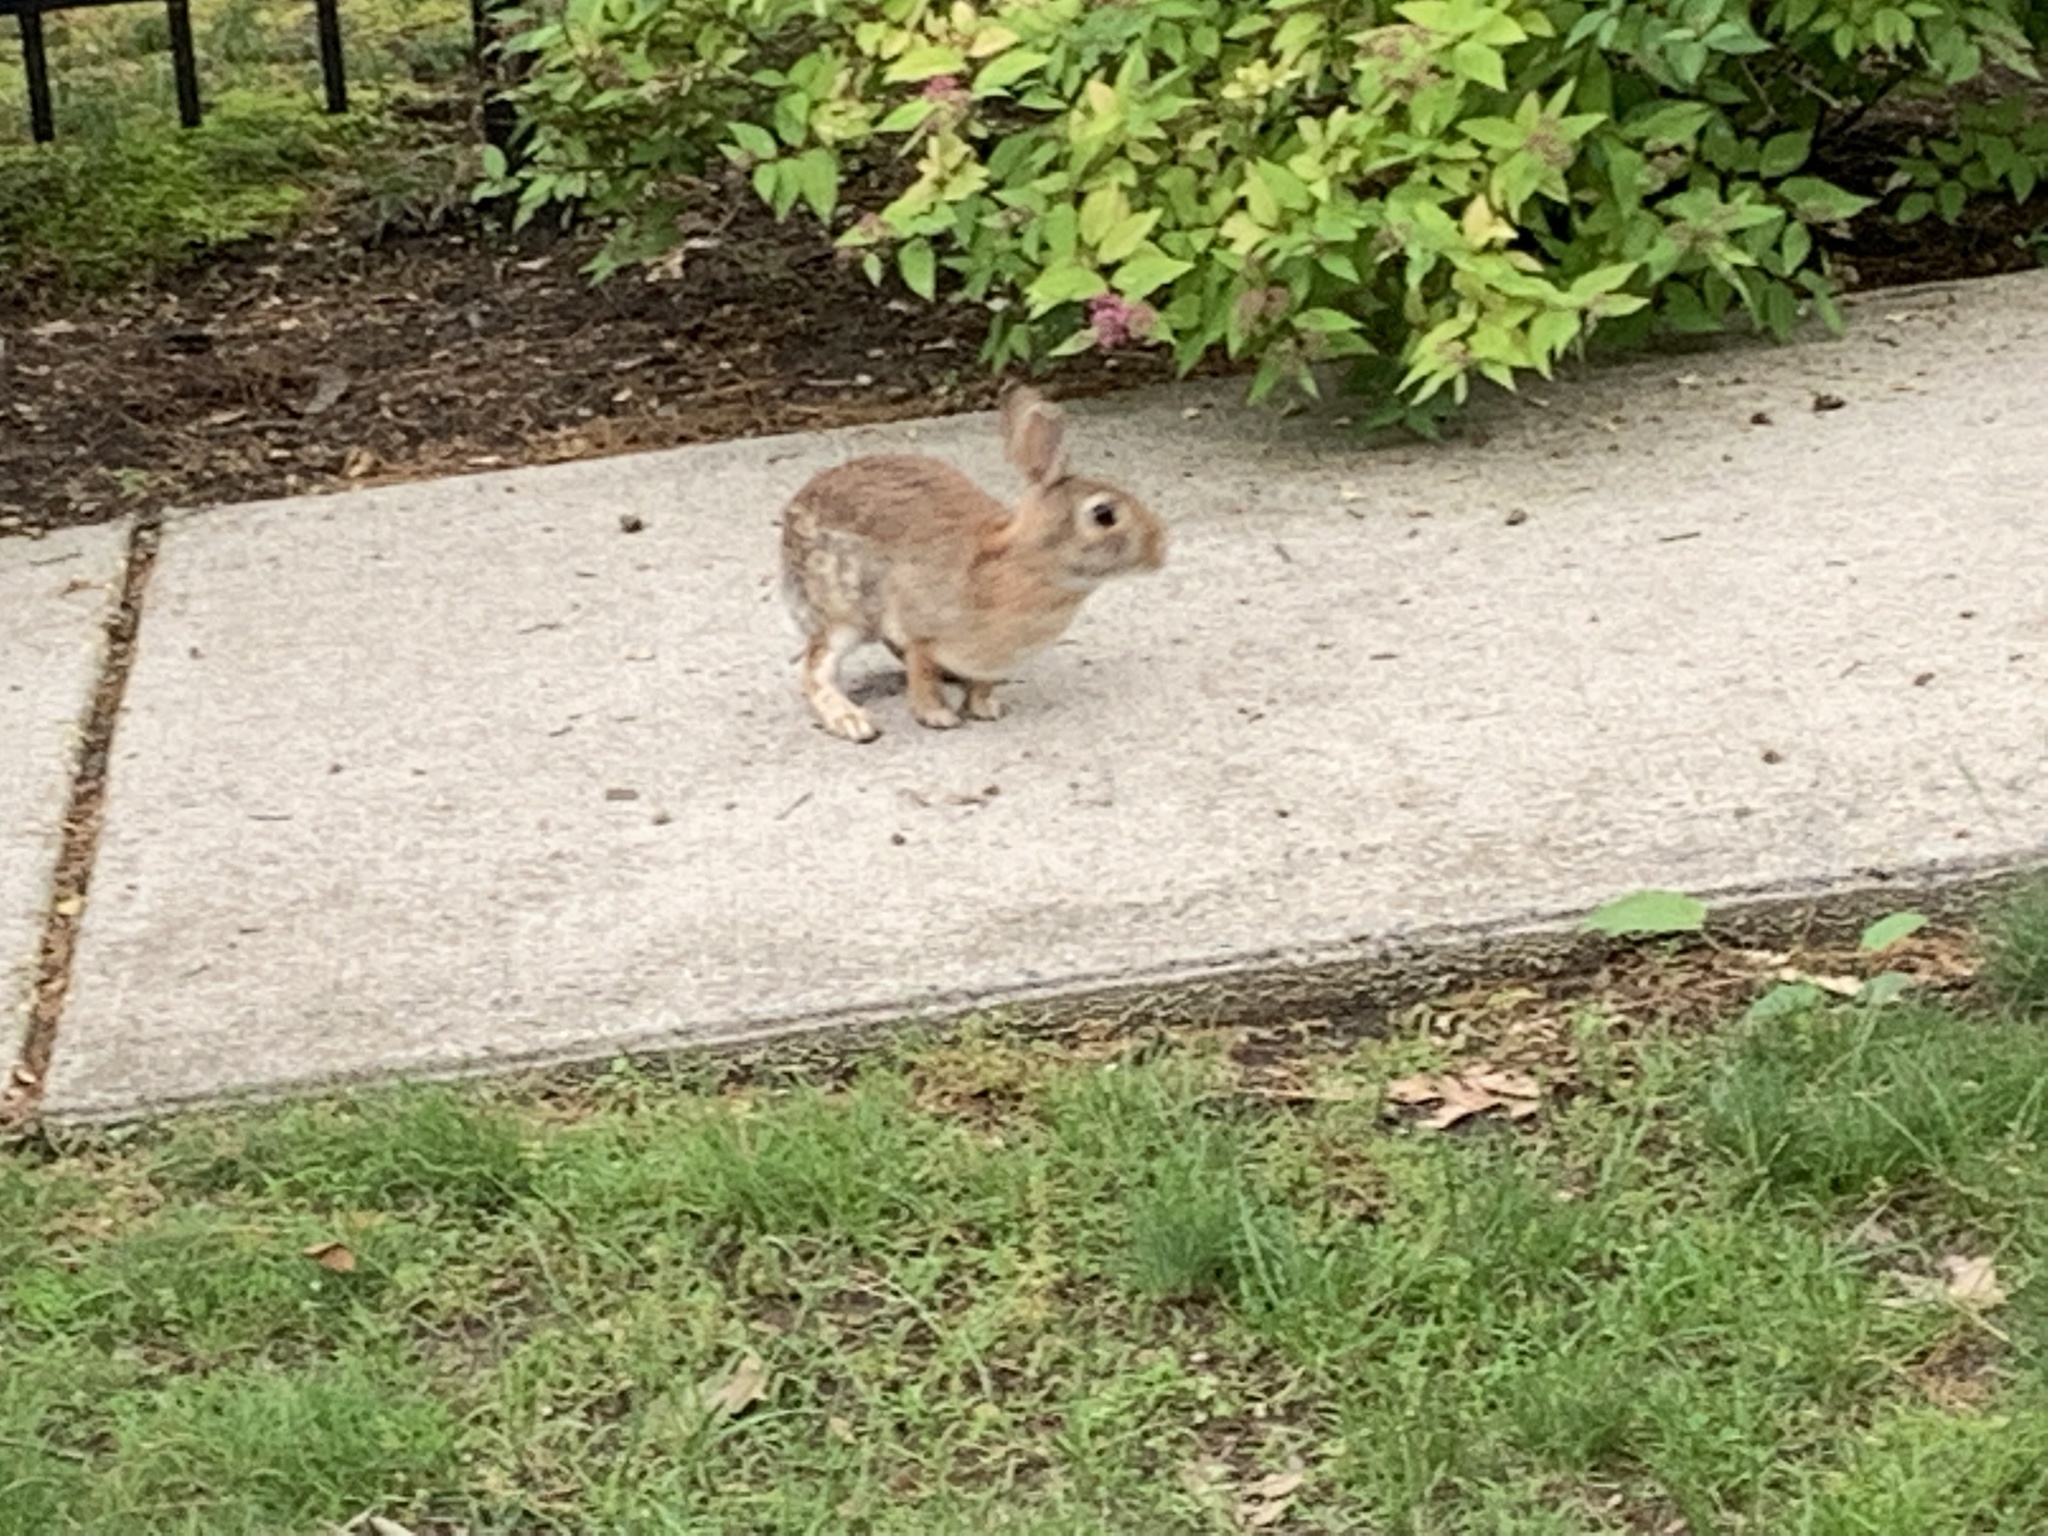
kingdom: Animalia
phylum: Chordata
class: Mammalia
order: Lagomorpha
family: Leporidae
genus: Sylvilagus
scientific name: Sylvilagus floridanus
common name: Eastern cottontail
